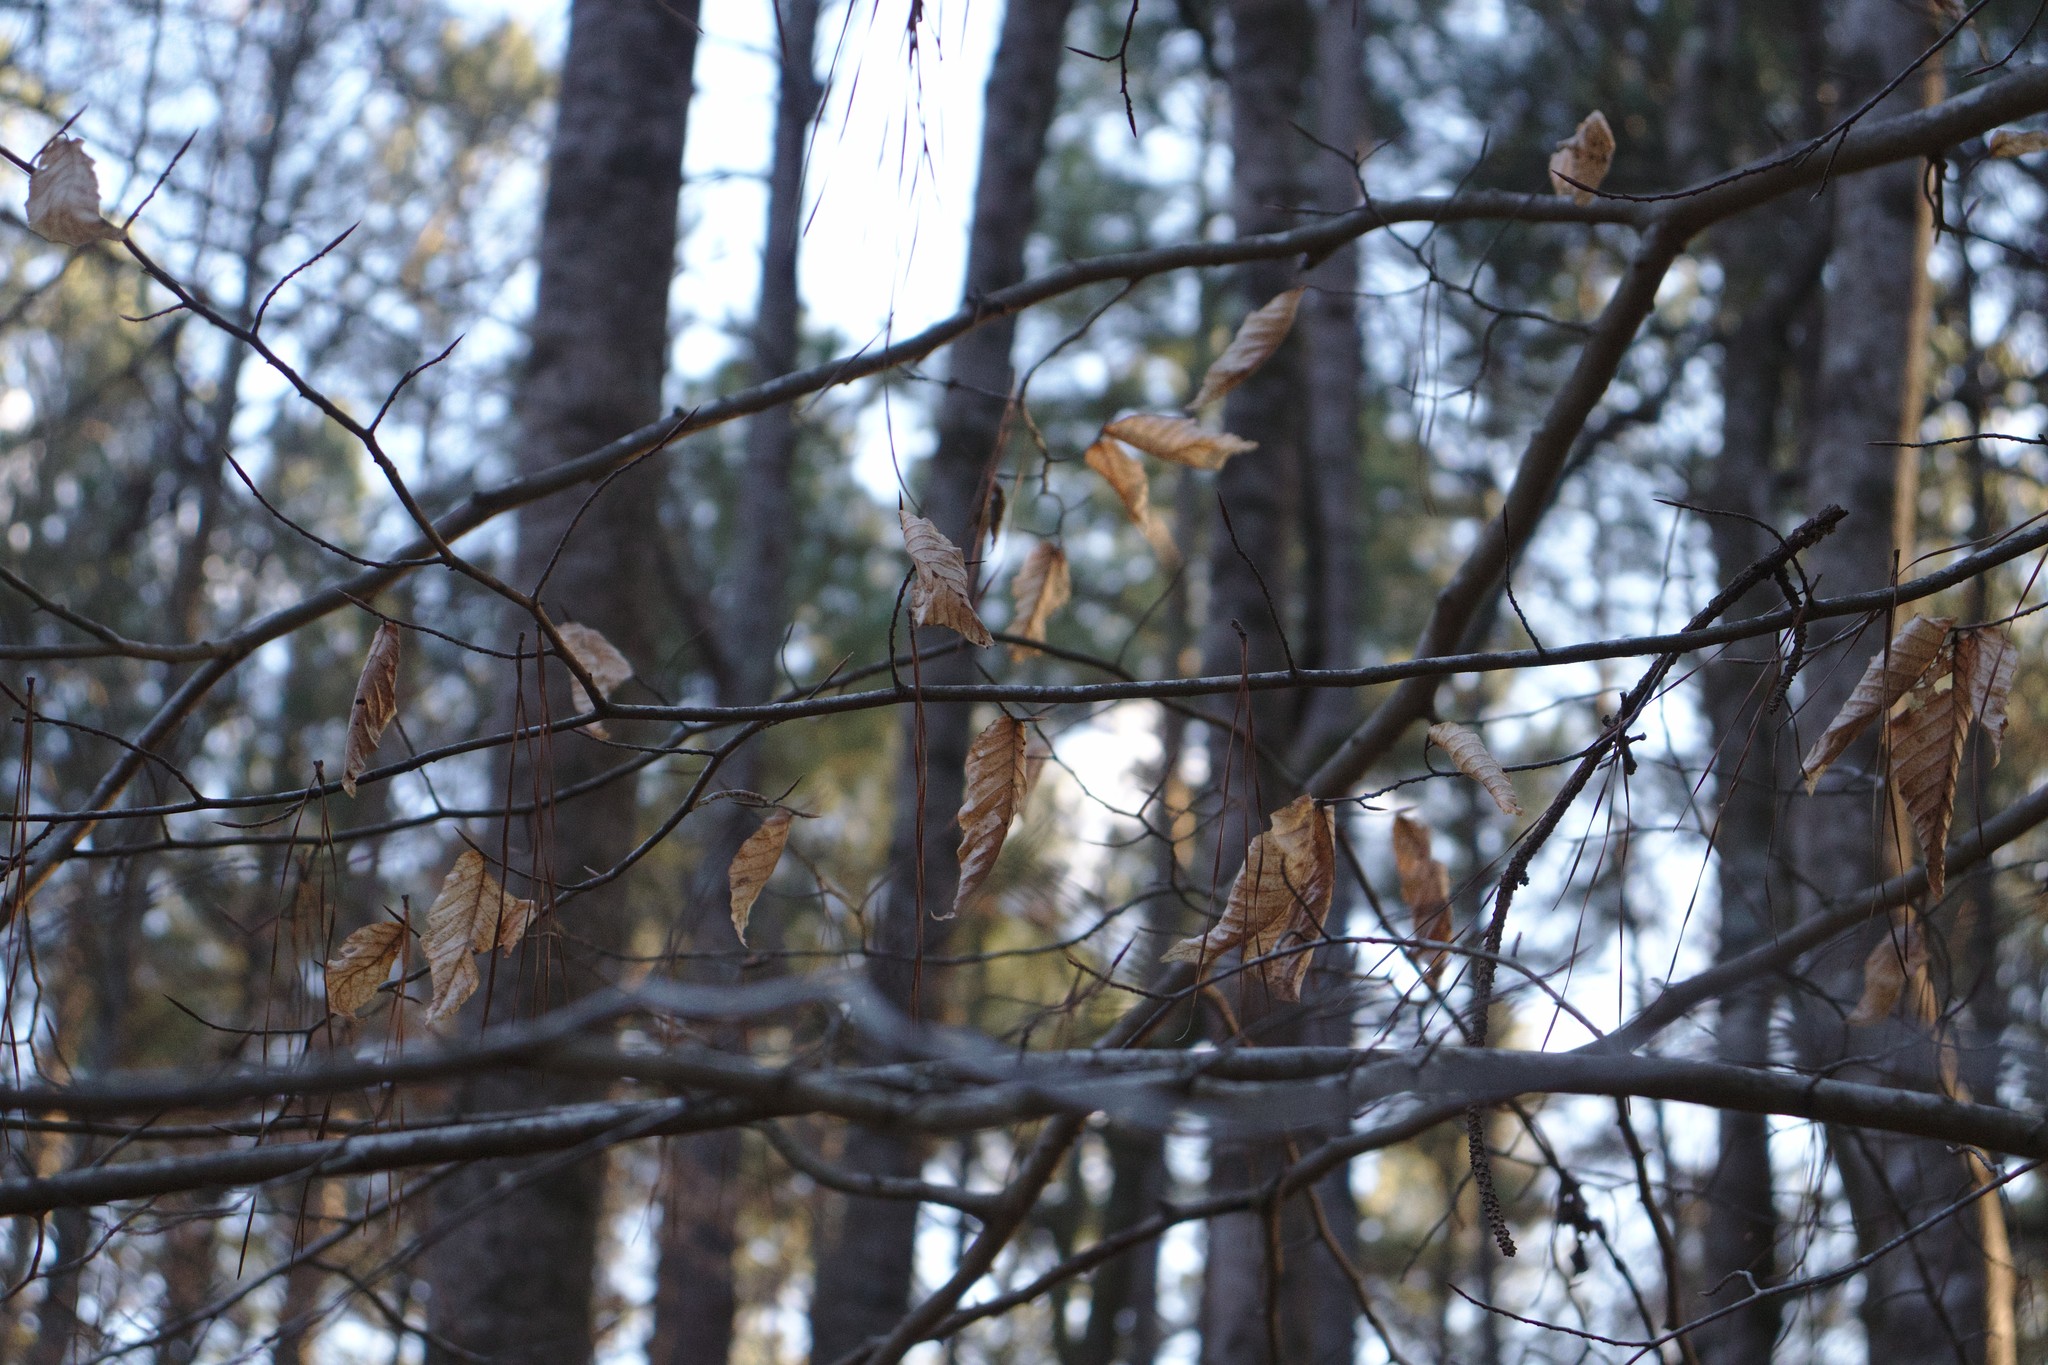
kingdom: Plantae
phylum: Tracheophyta
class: Magnoliopsida
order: Fagales
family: Fagaceae
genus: Fagus
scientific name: Fagus grandifolia
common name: American beech
